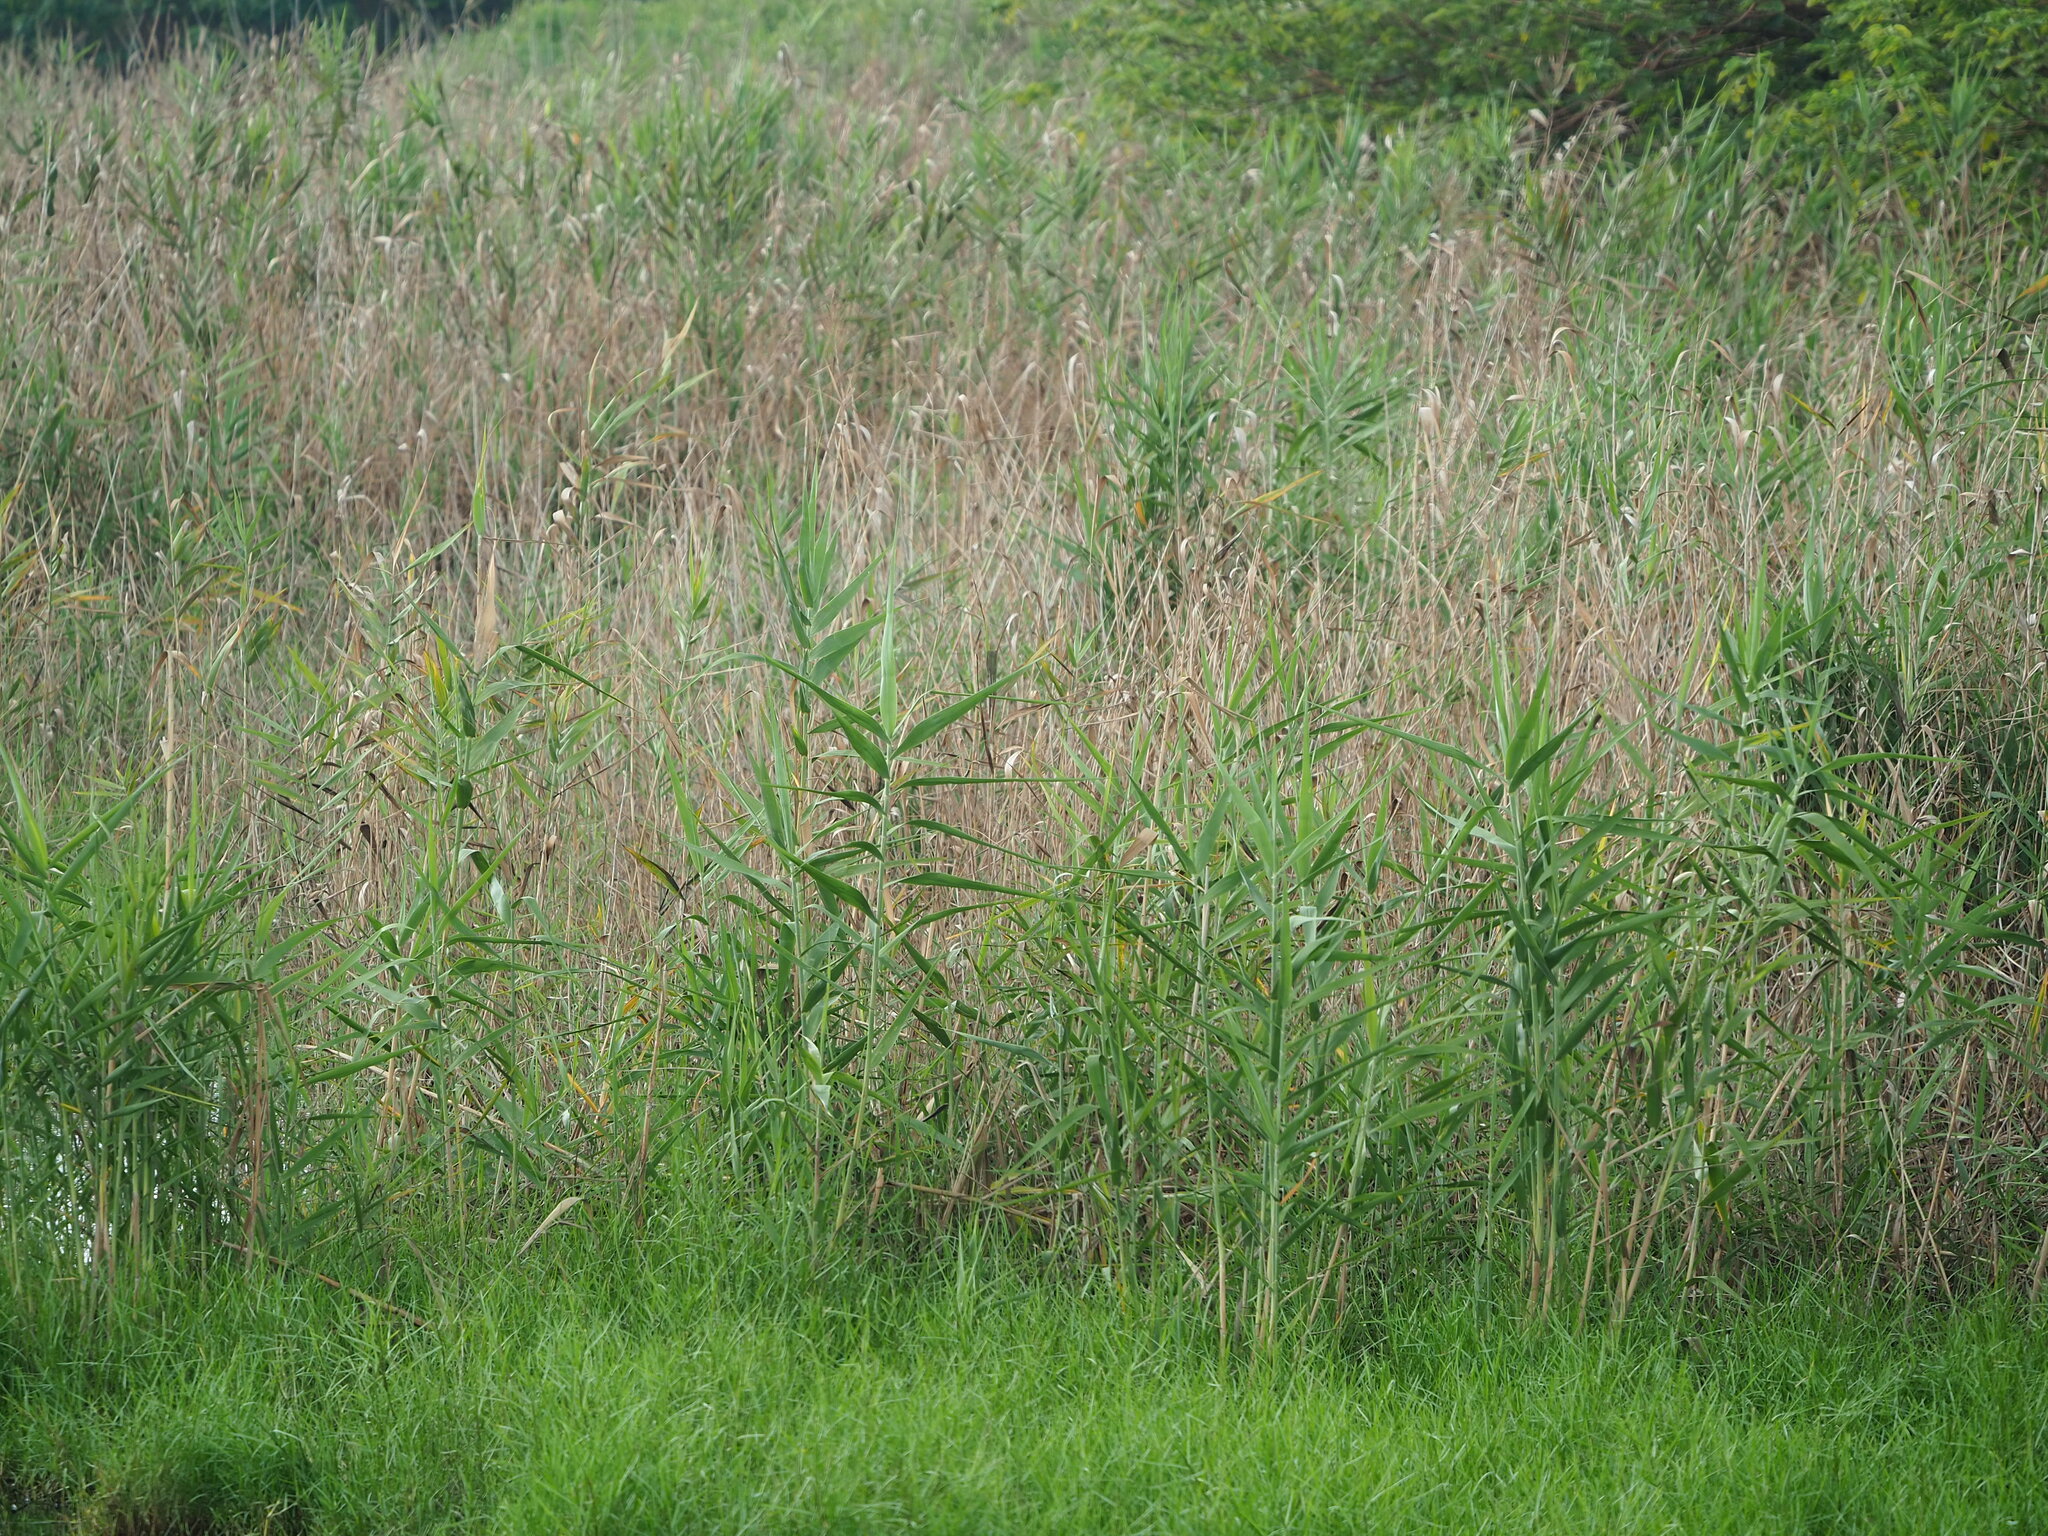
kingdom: Plantae
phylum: Tracheophyta
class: Liliopsida
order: Poales
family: Poaceae
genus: Phragmites
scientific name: Phragmites australis
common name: Common reed
